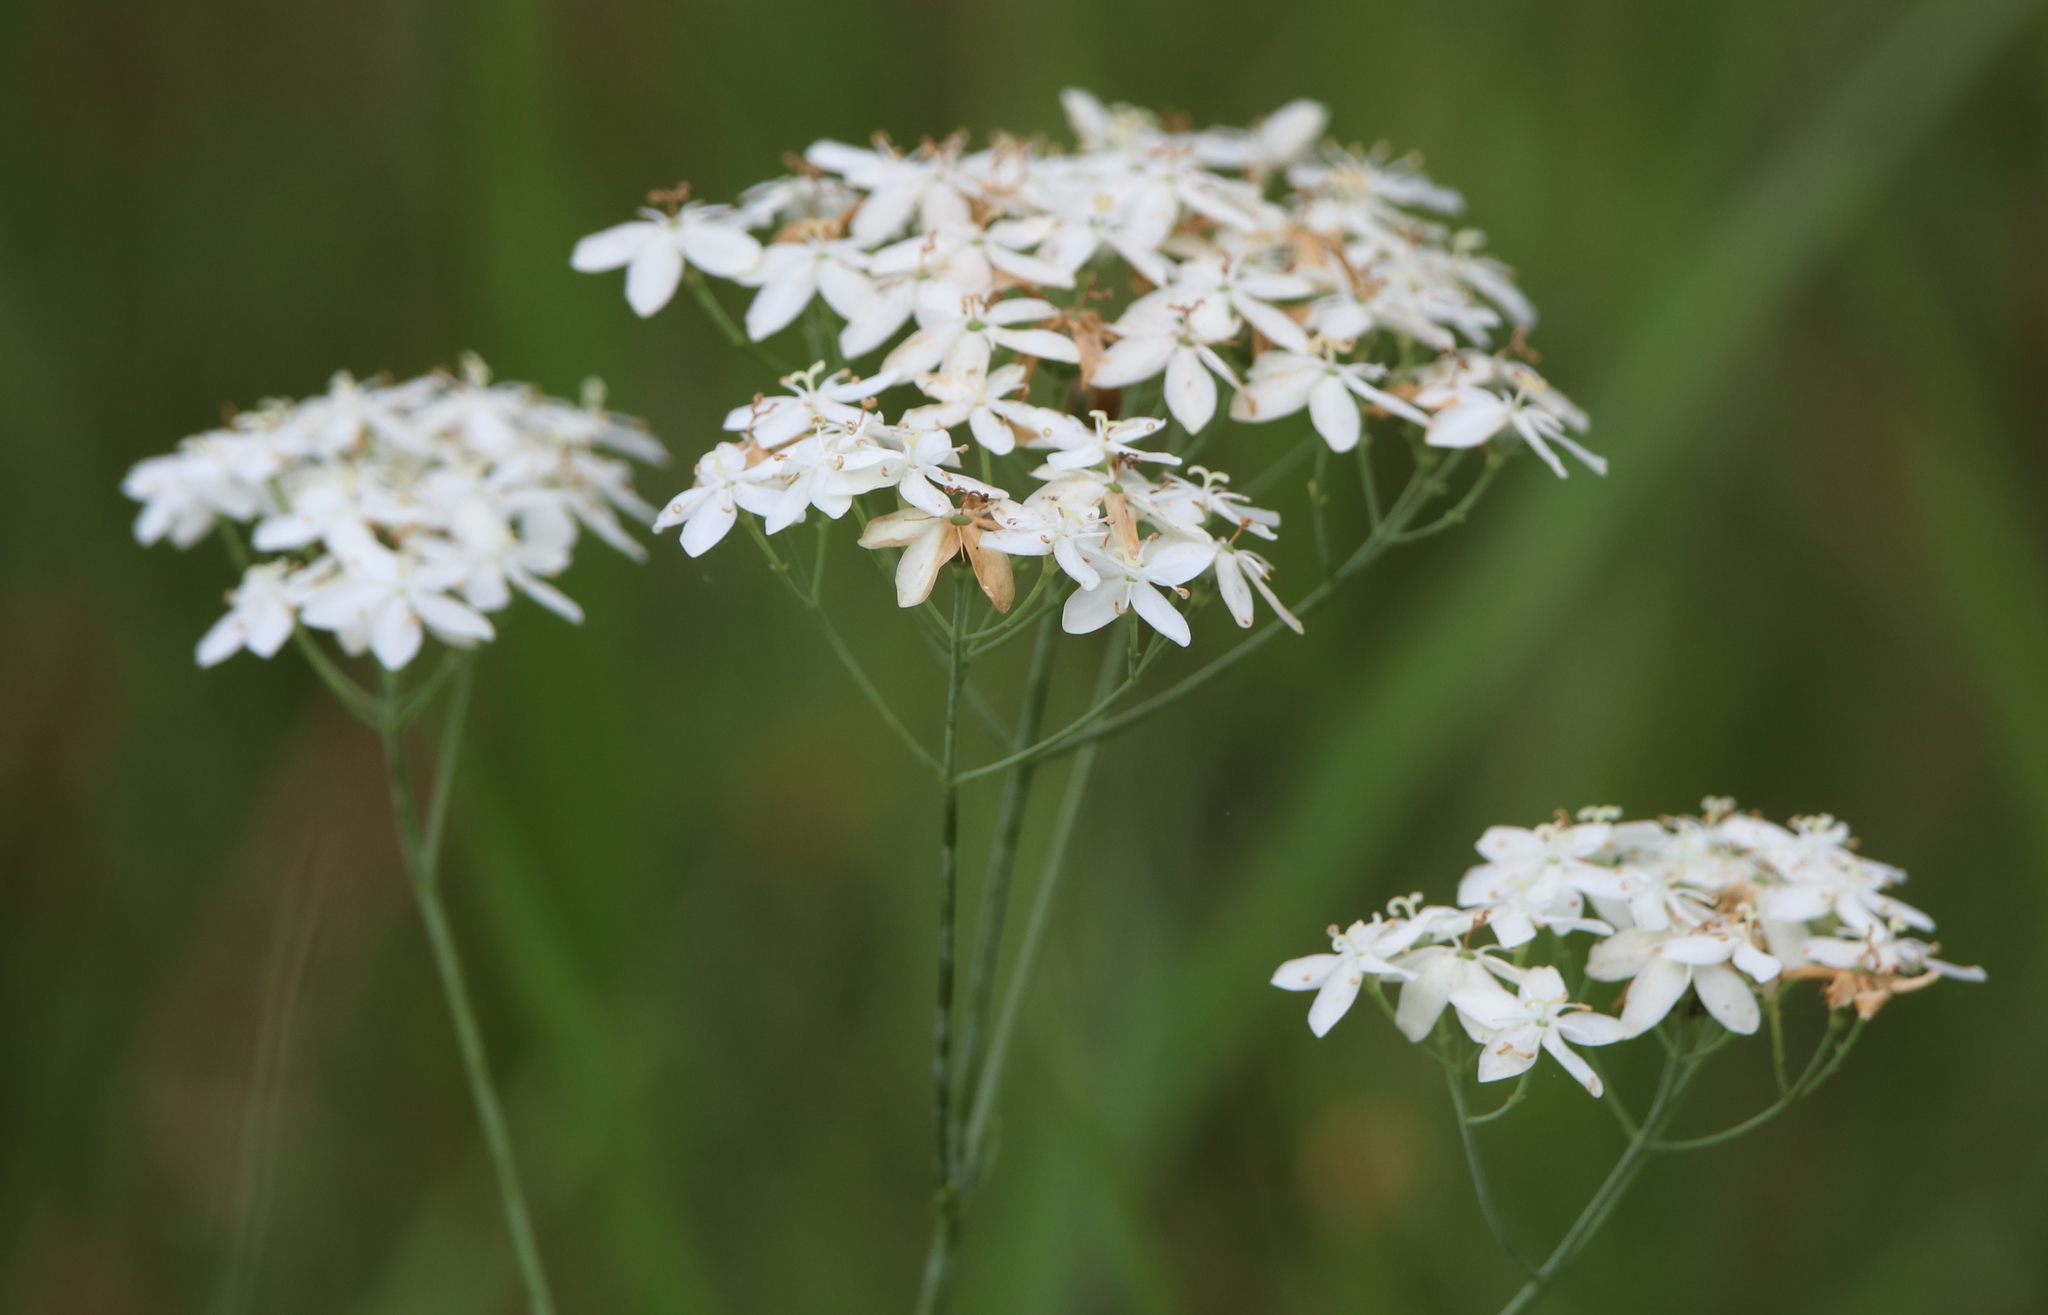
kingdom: Plantae
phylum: Tracheophyta
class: Magnoliopsida
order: Gentianales
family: Gentianaceae
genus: Sabatia
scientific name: Sabatia macrophylla
